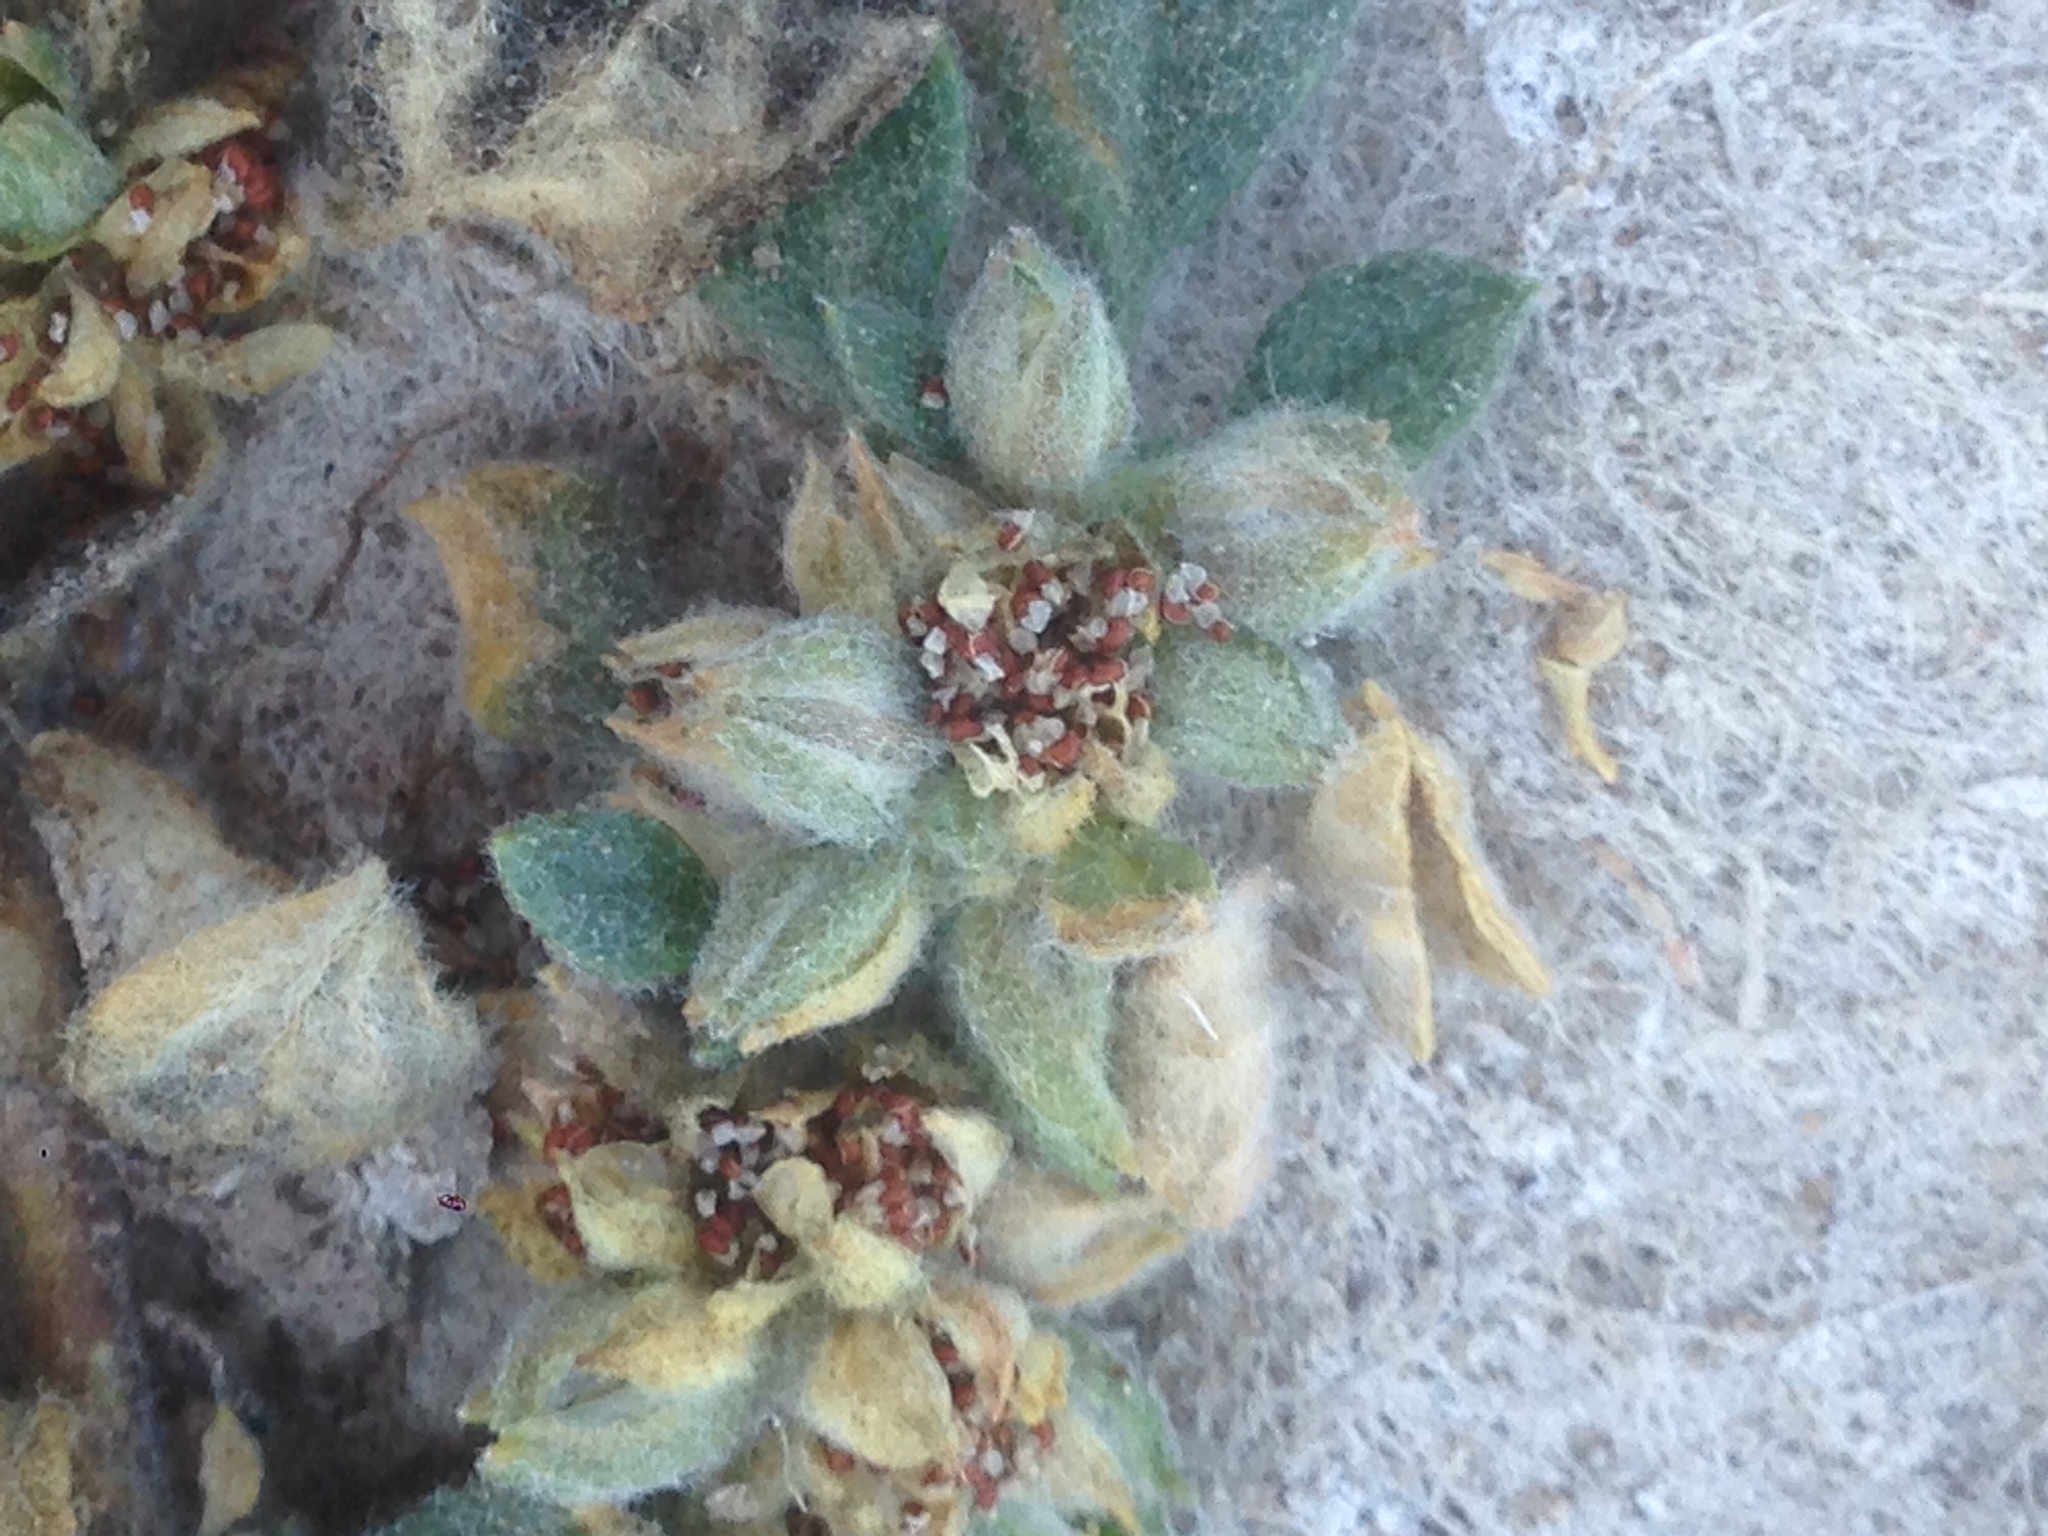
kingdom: Plantae
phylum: Tracheophyta
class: Magnoliopsida
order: Caryophyllales
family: Molluginaceae
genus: Glinus
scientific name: Glinus lotoides
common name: Lotus sweetjuice
